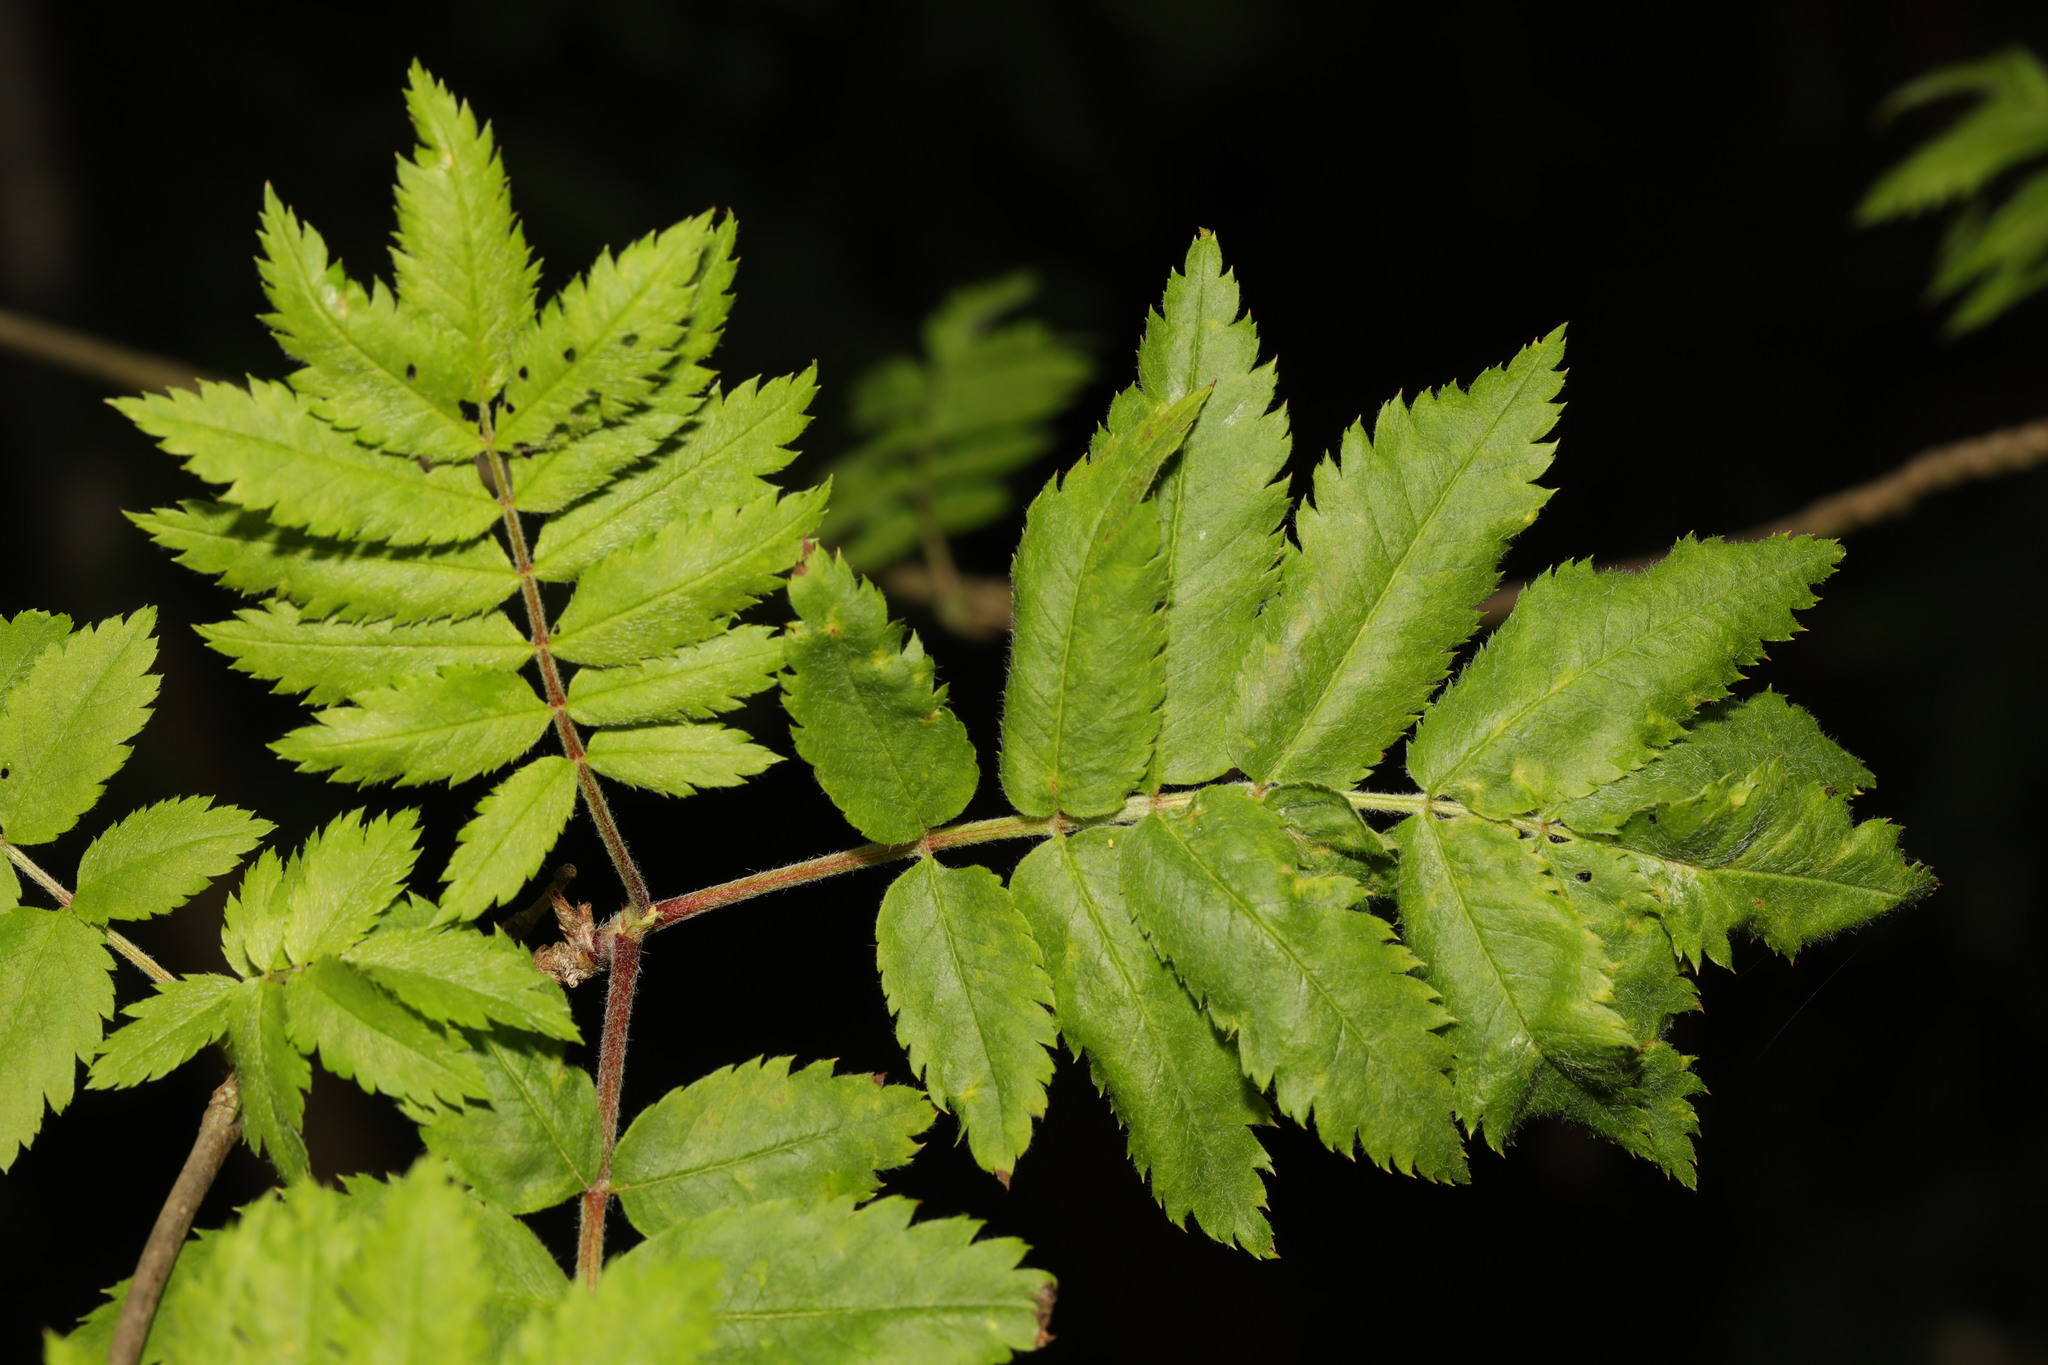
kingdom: Plantae
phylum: Tracheophyta
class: Magnoliopsida
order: Rosales
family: Rosaceae
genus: Sorbus
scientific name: Sorbus aucuparia
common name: Rowan
